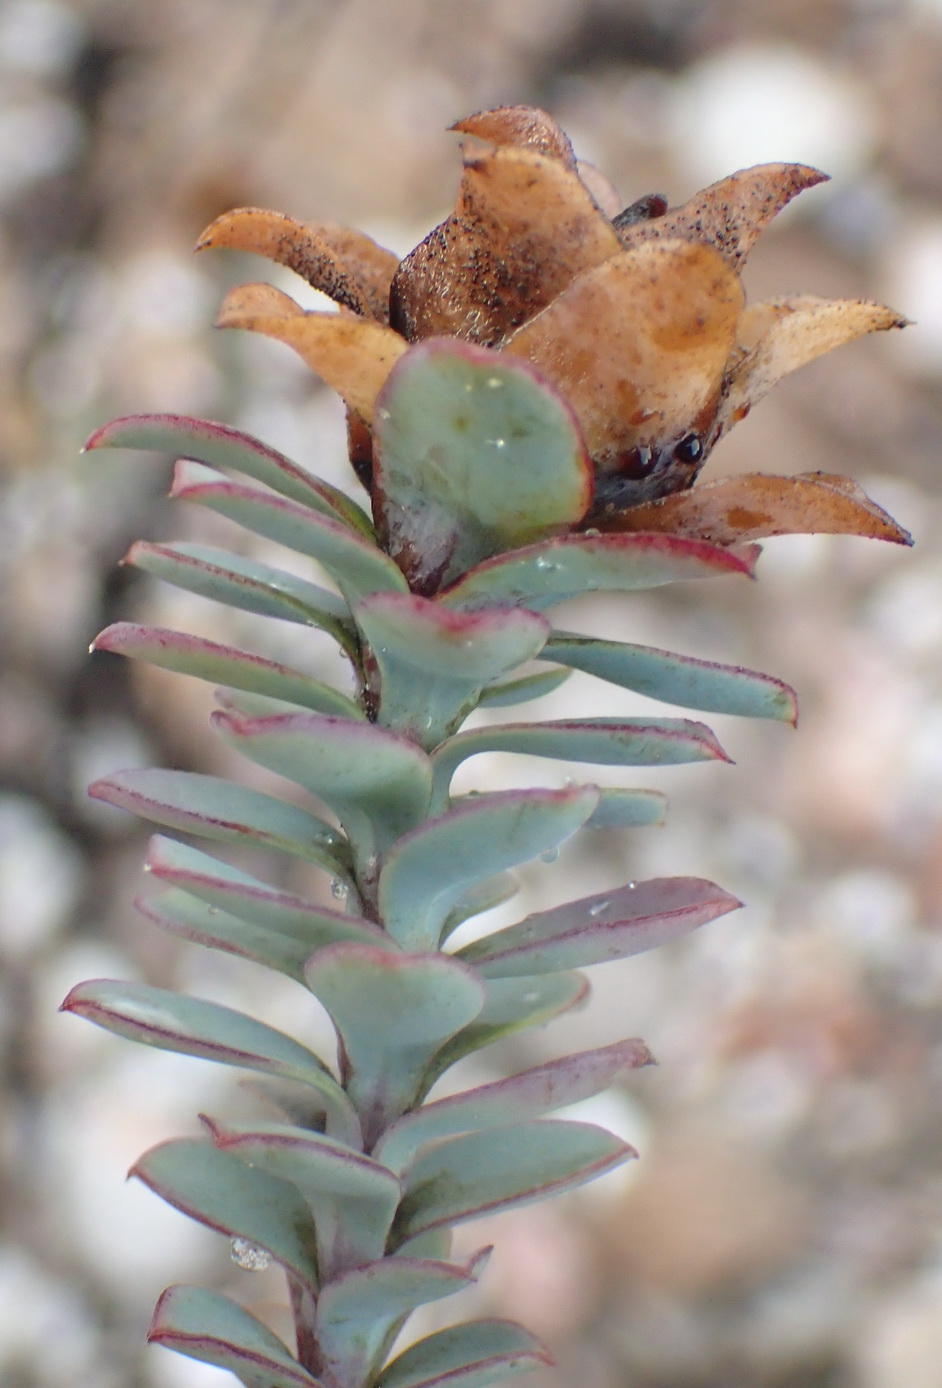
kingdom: Plantae
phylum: Tracheophyta
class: Magnoliopsida
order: Asterales
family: Asteraceae
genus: Osteospermum
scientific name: Osteospermum polygaloides
